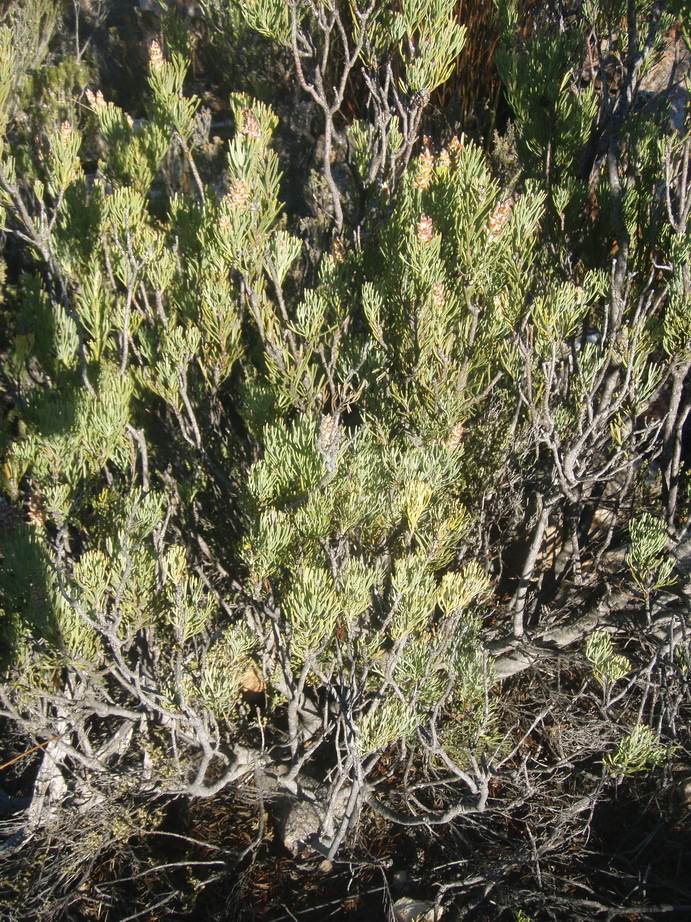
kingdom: Plantae
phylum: Tracheophyta
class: Magnoliopsida
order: Proteales
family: Proteaceae
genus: Paranomus
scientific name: Paranomus dregei
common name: Scented sceptre
